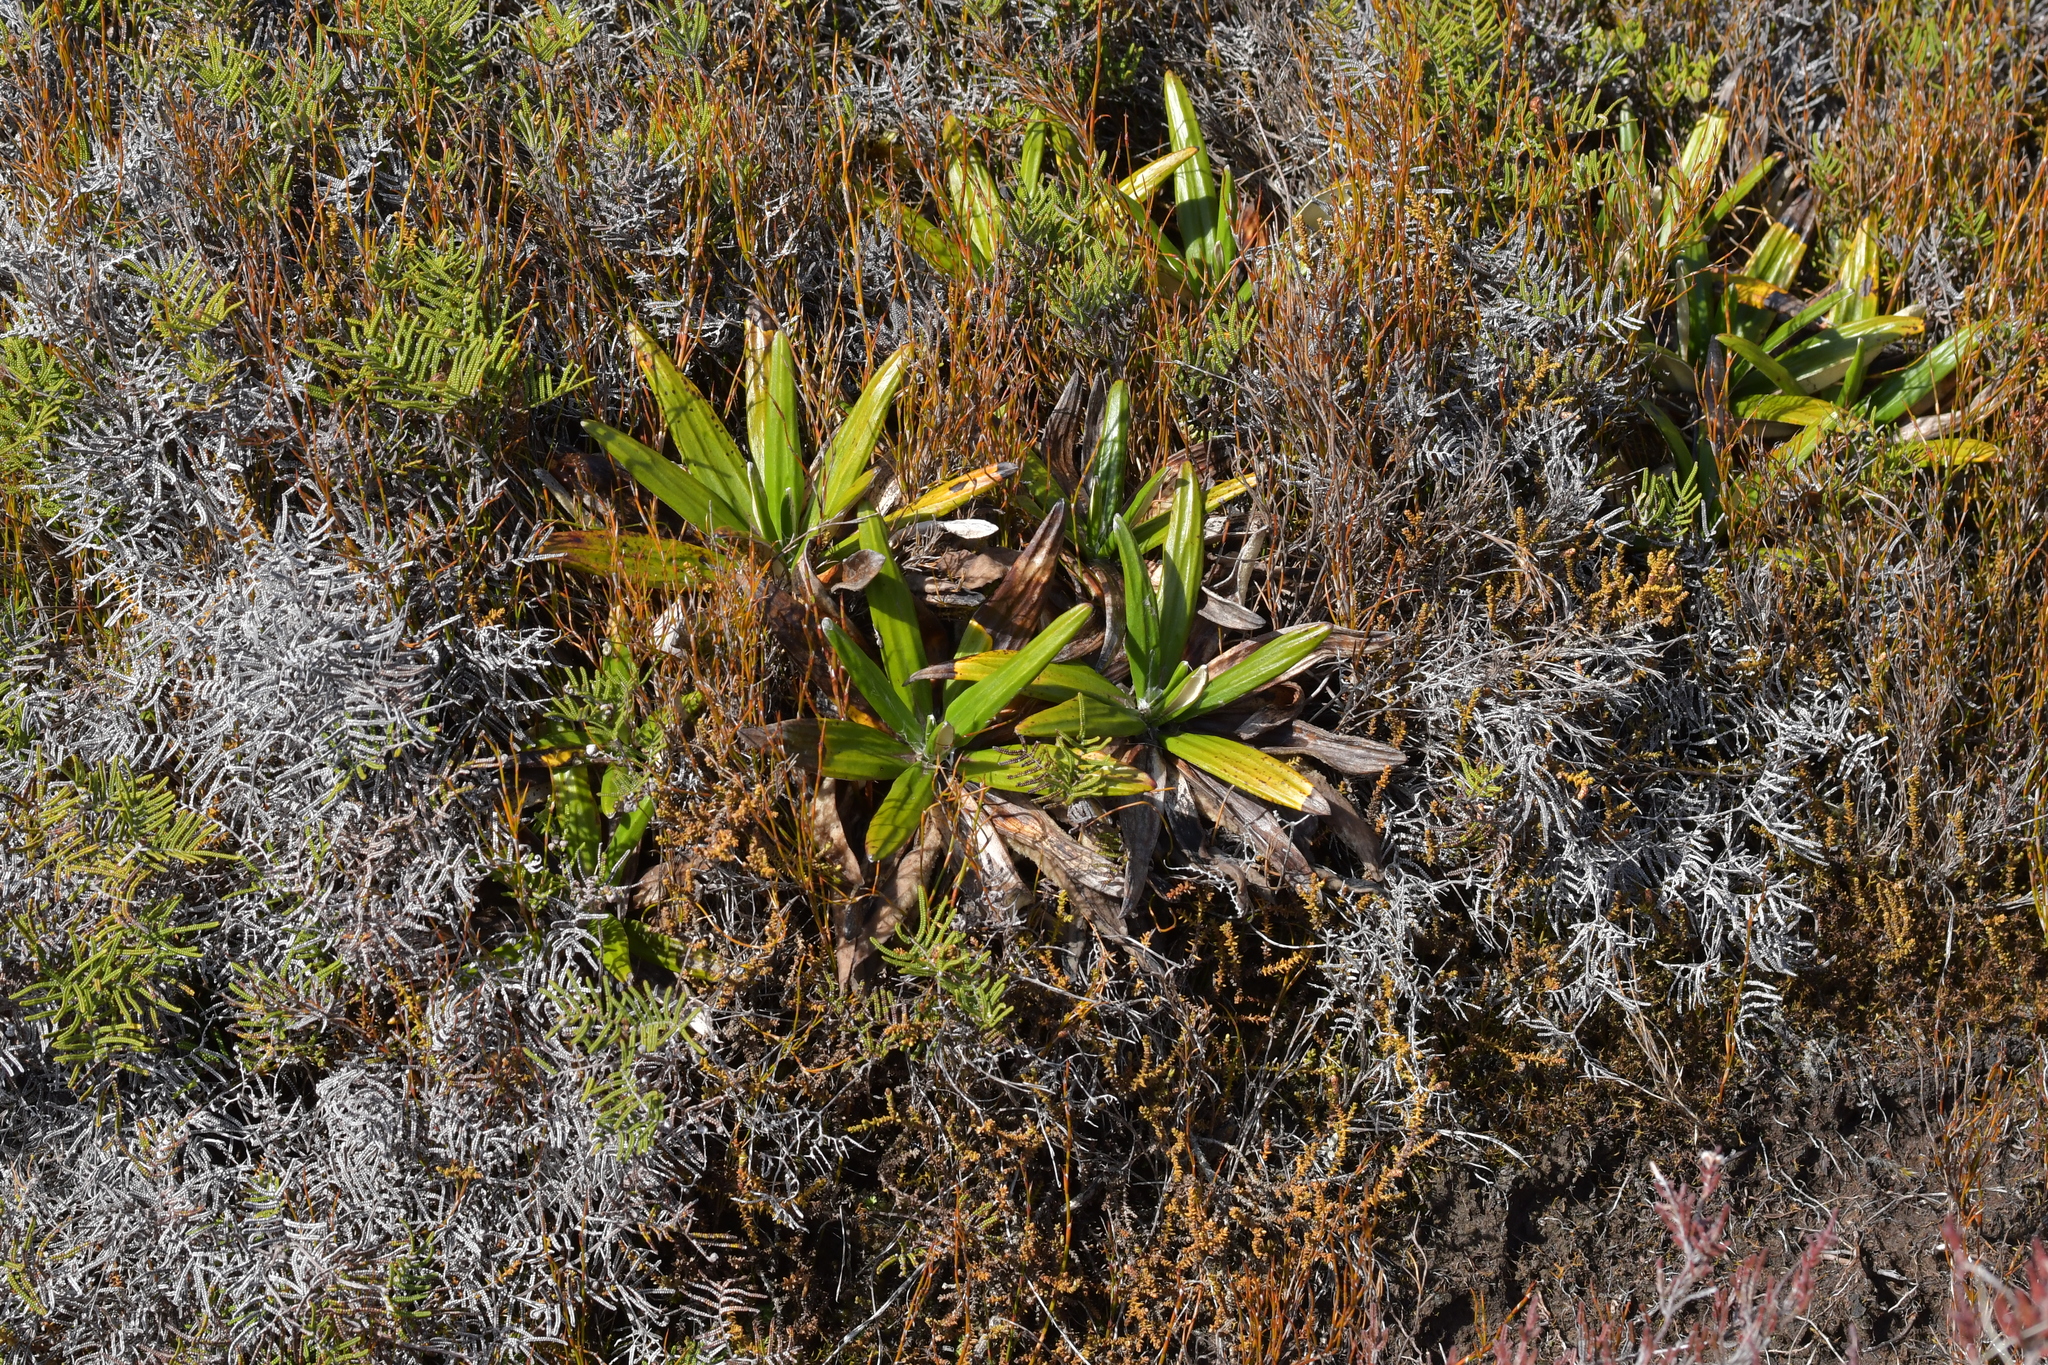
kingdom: Plantae
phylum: Tracheophyta
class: Magnoliopsida
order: Asterales
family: Asteraceae
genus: Celmisia
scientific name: Celmisia spectabilis
